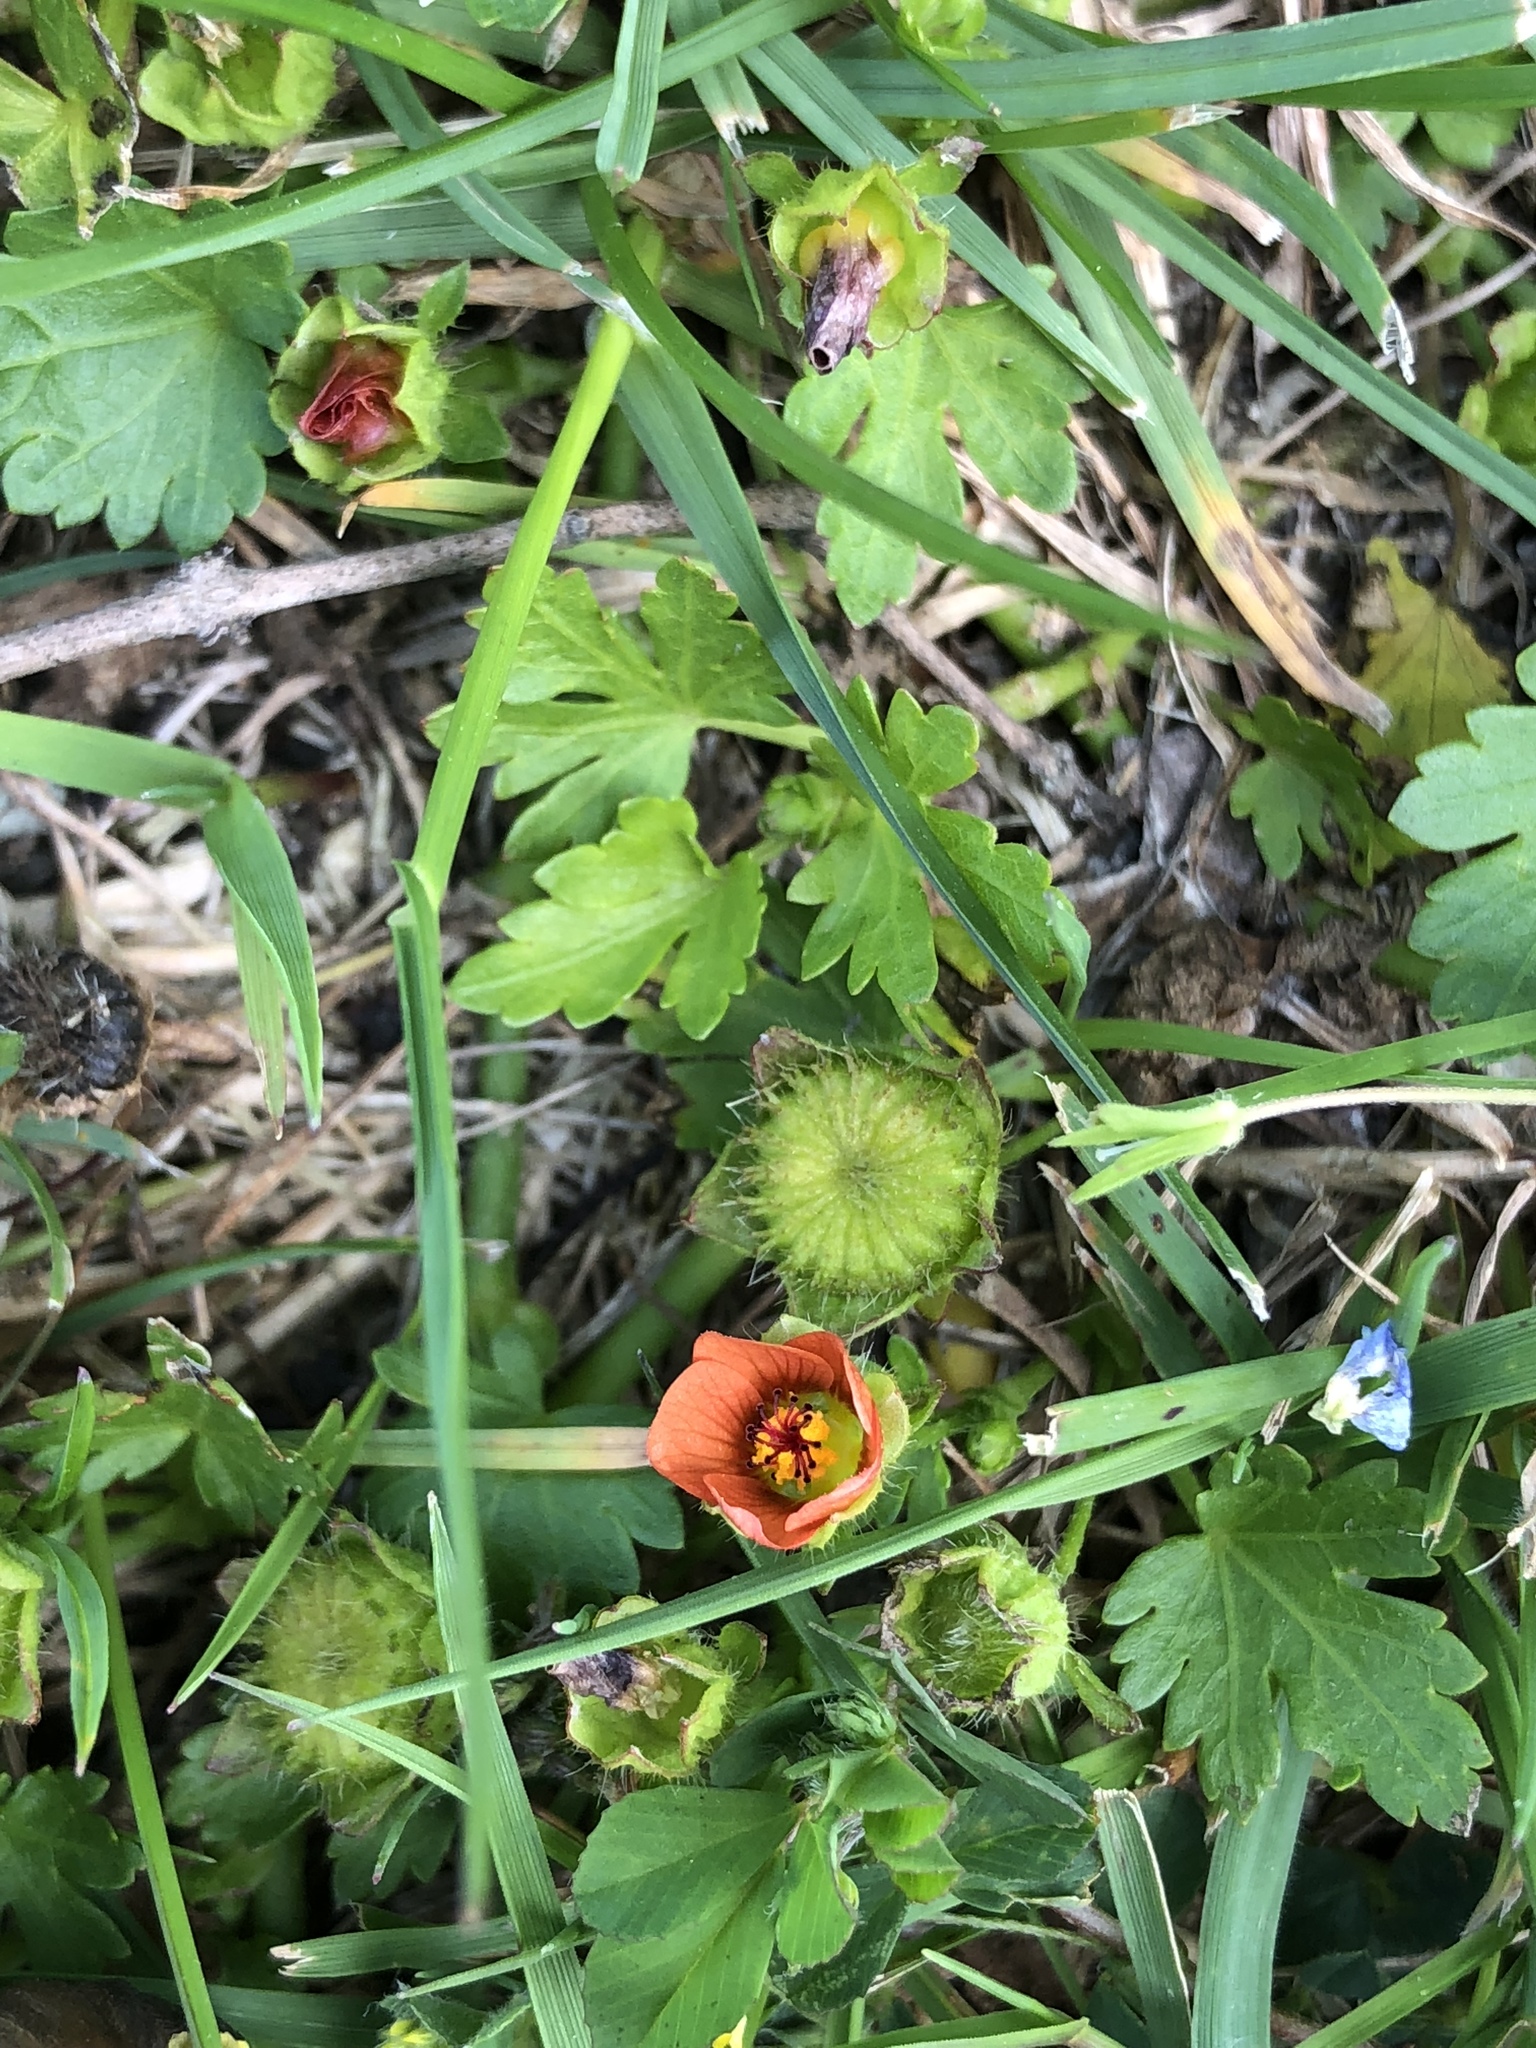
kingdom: Plantae
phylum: Tracheophyta
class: Magnoliopsida
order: Malvales
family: Malvaceae
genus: Modiola
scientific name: Modiola caroliniana
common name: Carolina bristlemallow
